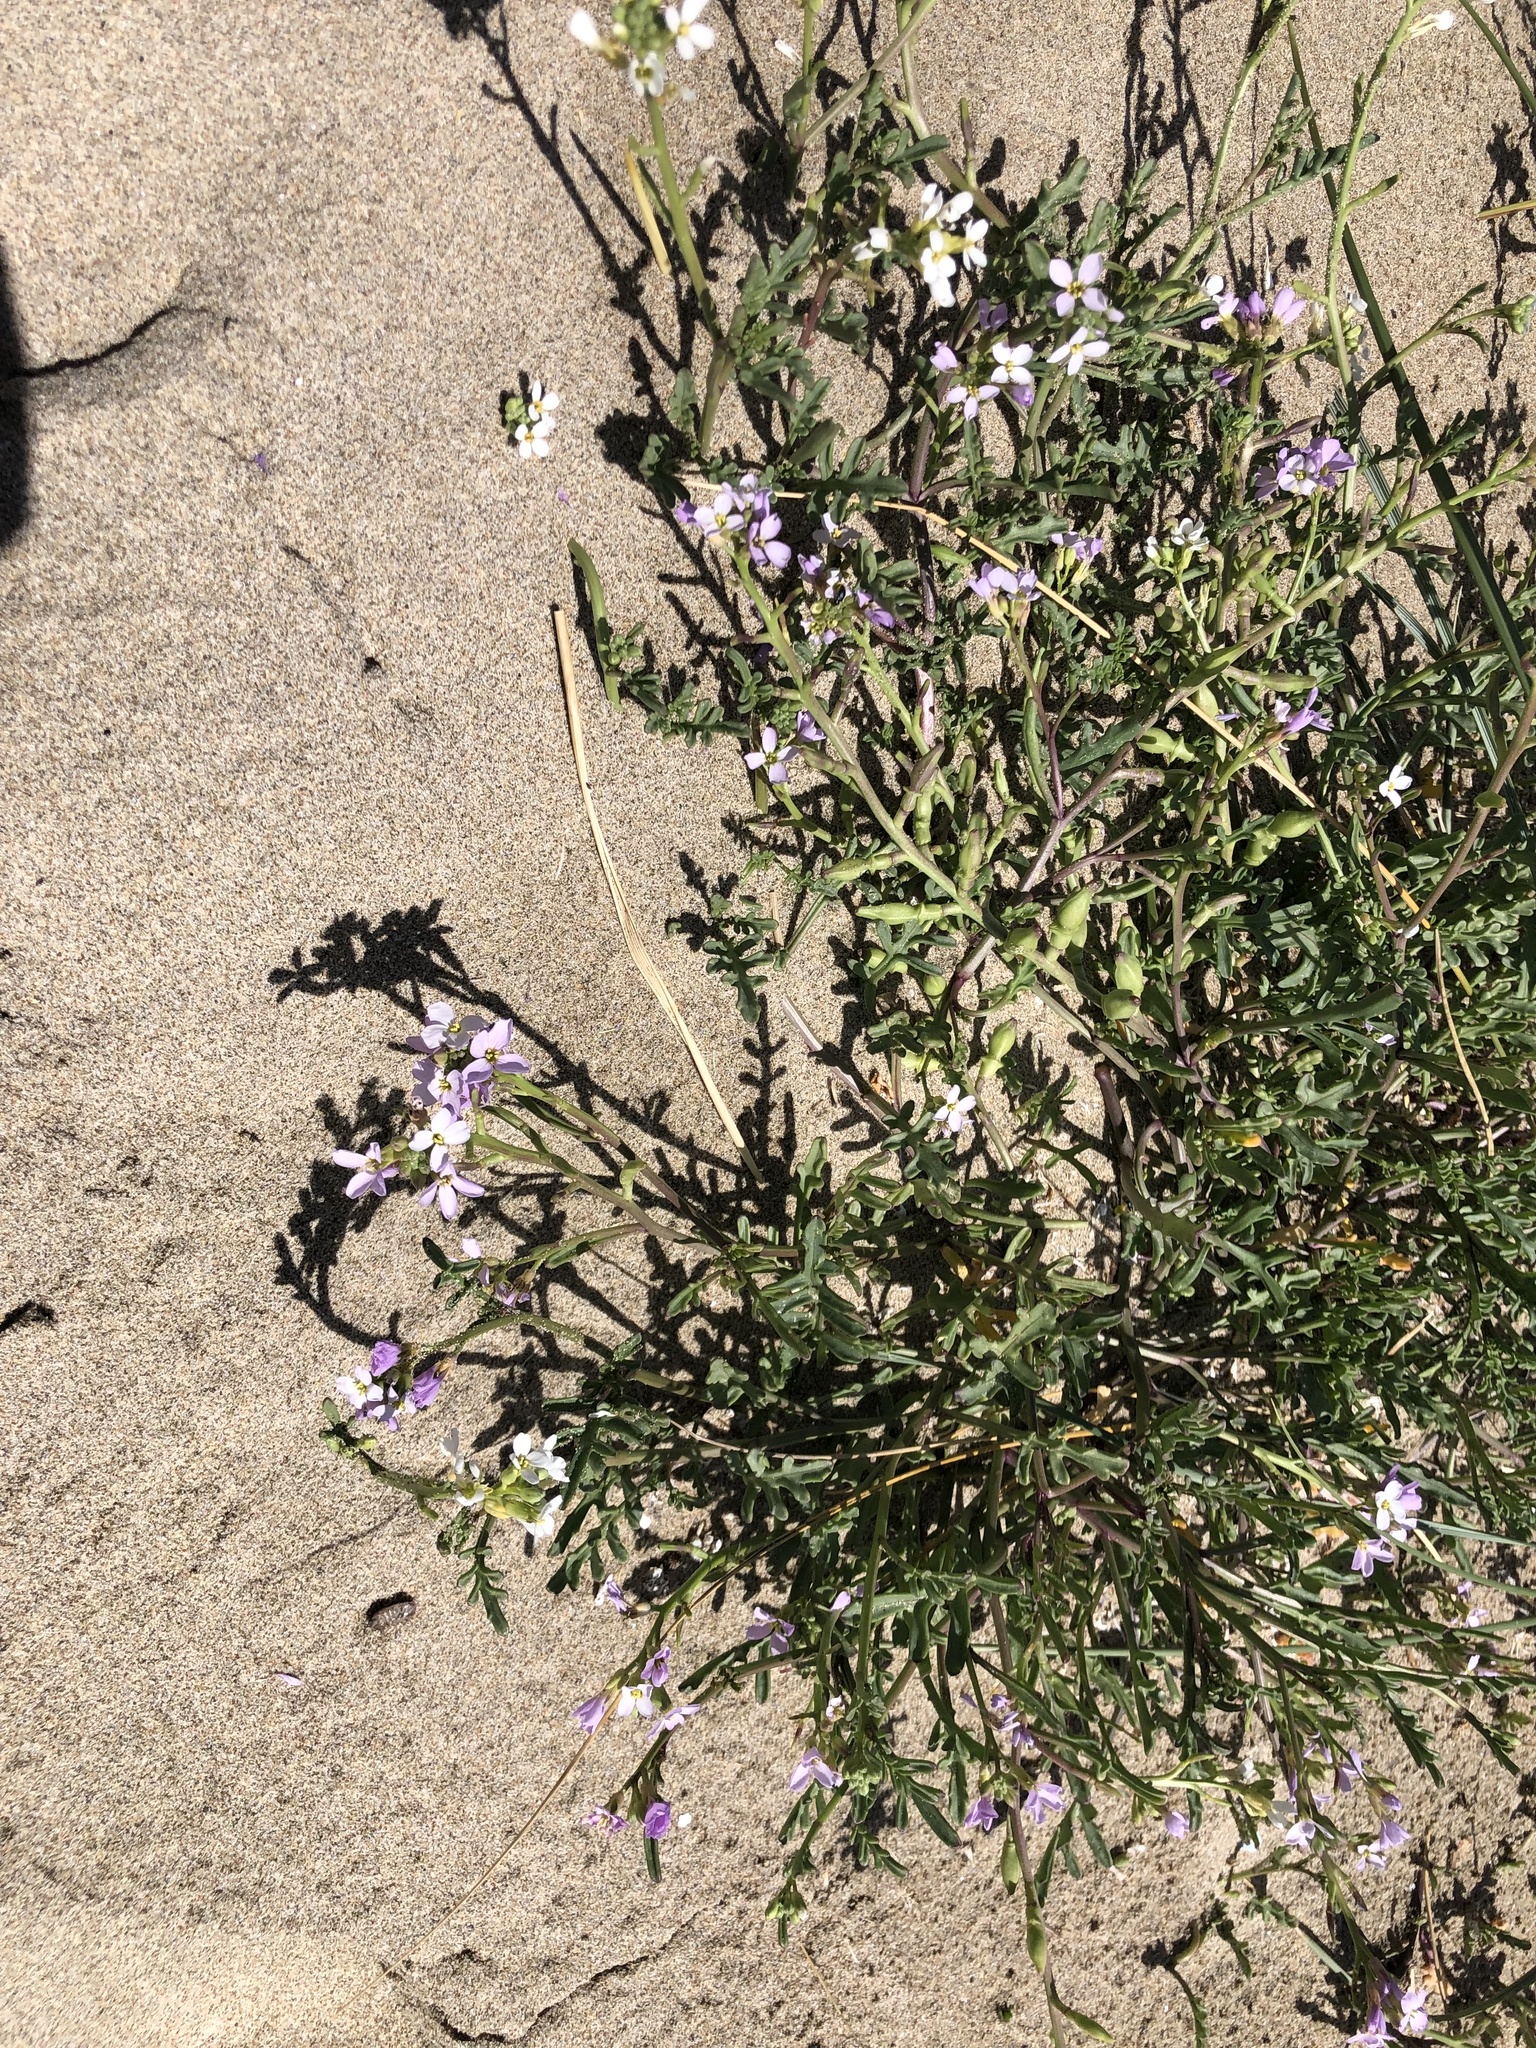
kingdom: Plantae
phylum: Tracheophyta
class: Magnoliopsida
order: Brassicales
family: Brassicaceae
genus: Cakile
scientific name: Cakile maritima
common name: Sea rocket
